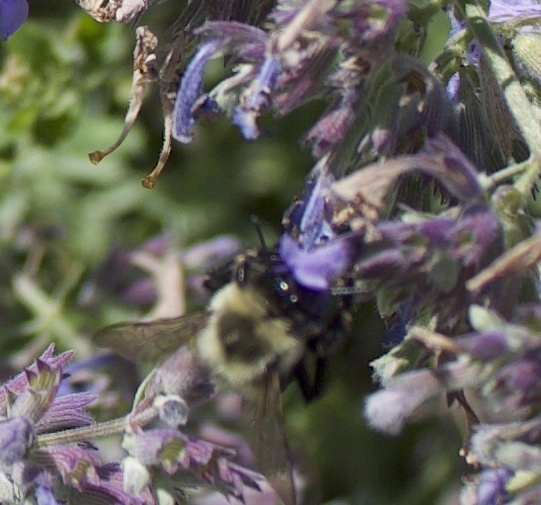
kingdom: Animalia
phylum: Arthropoda
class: Insecta
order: Hymenoptera
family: Apidae
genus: Bombus
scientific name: Bombus impatiens
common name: Common eastern bumble bee
